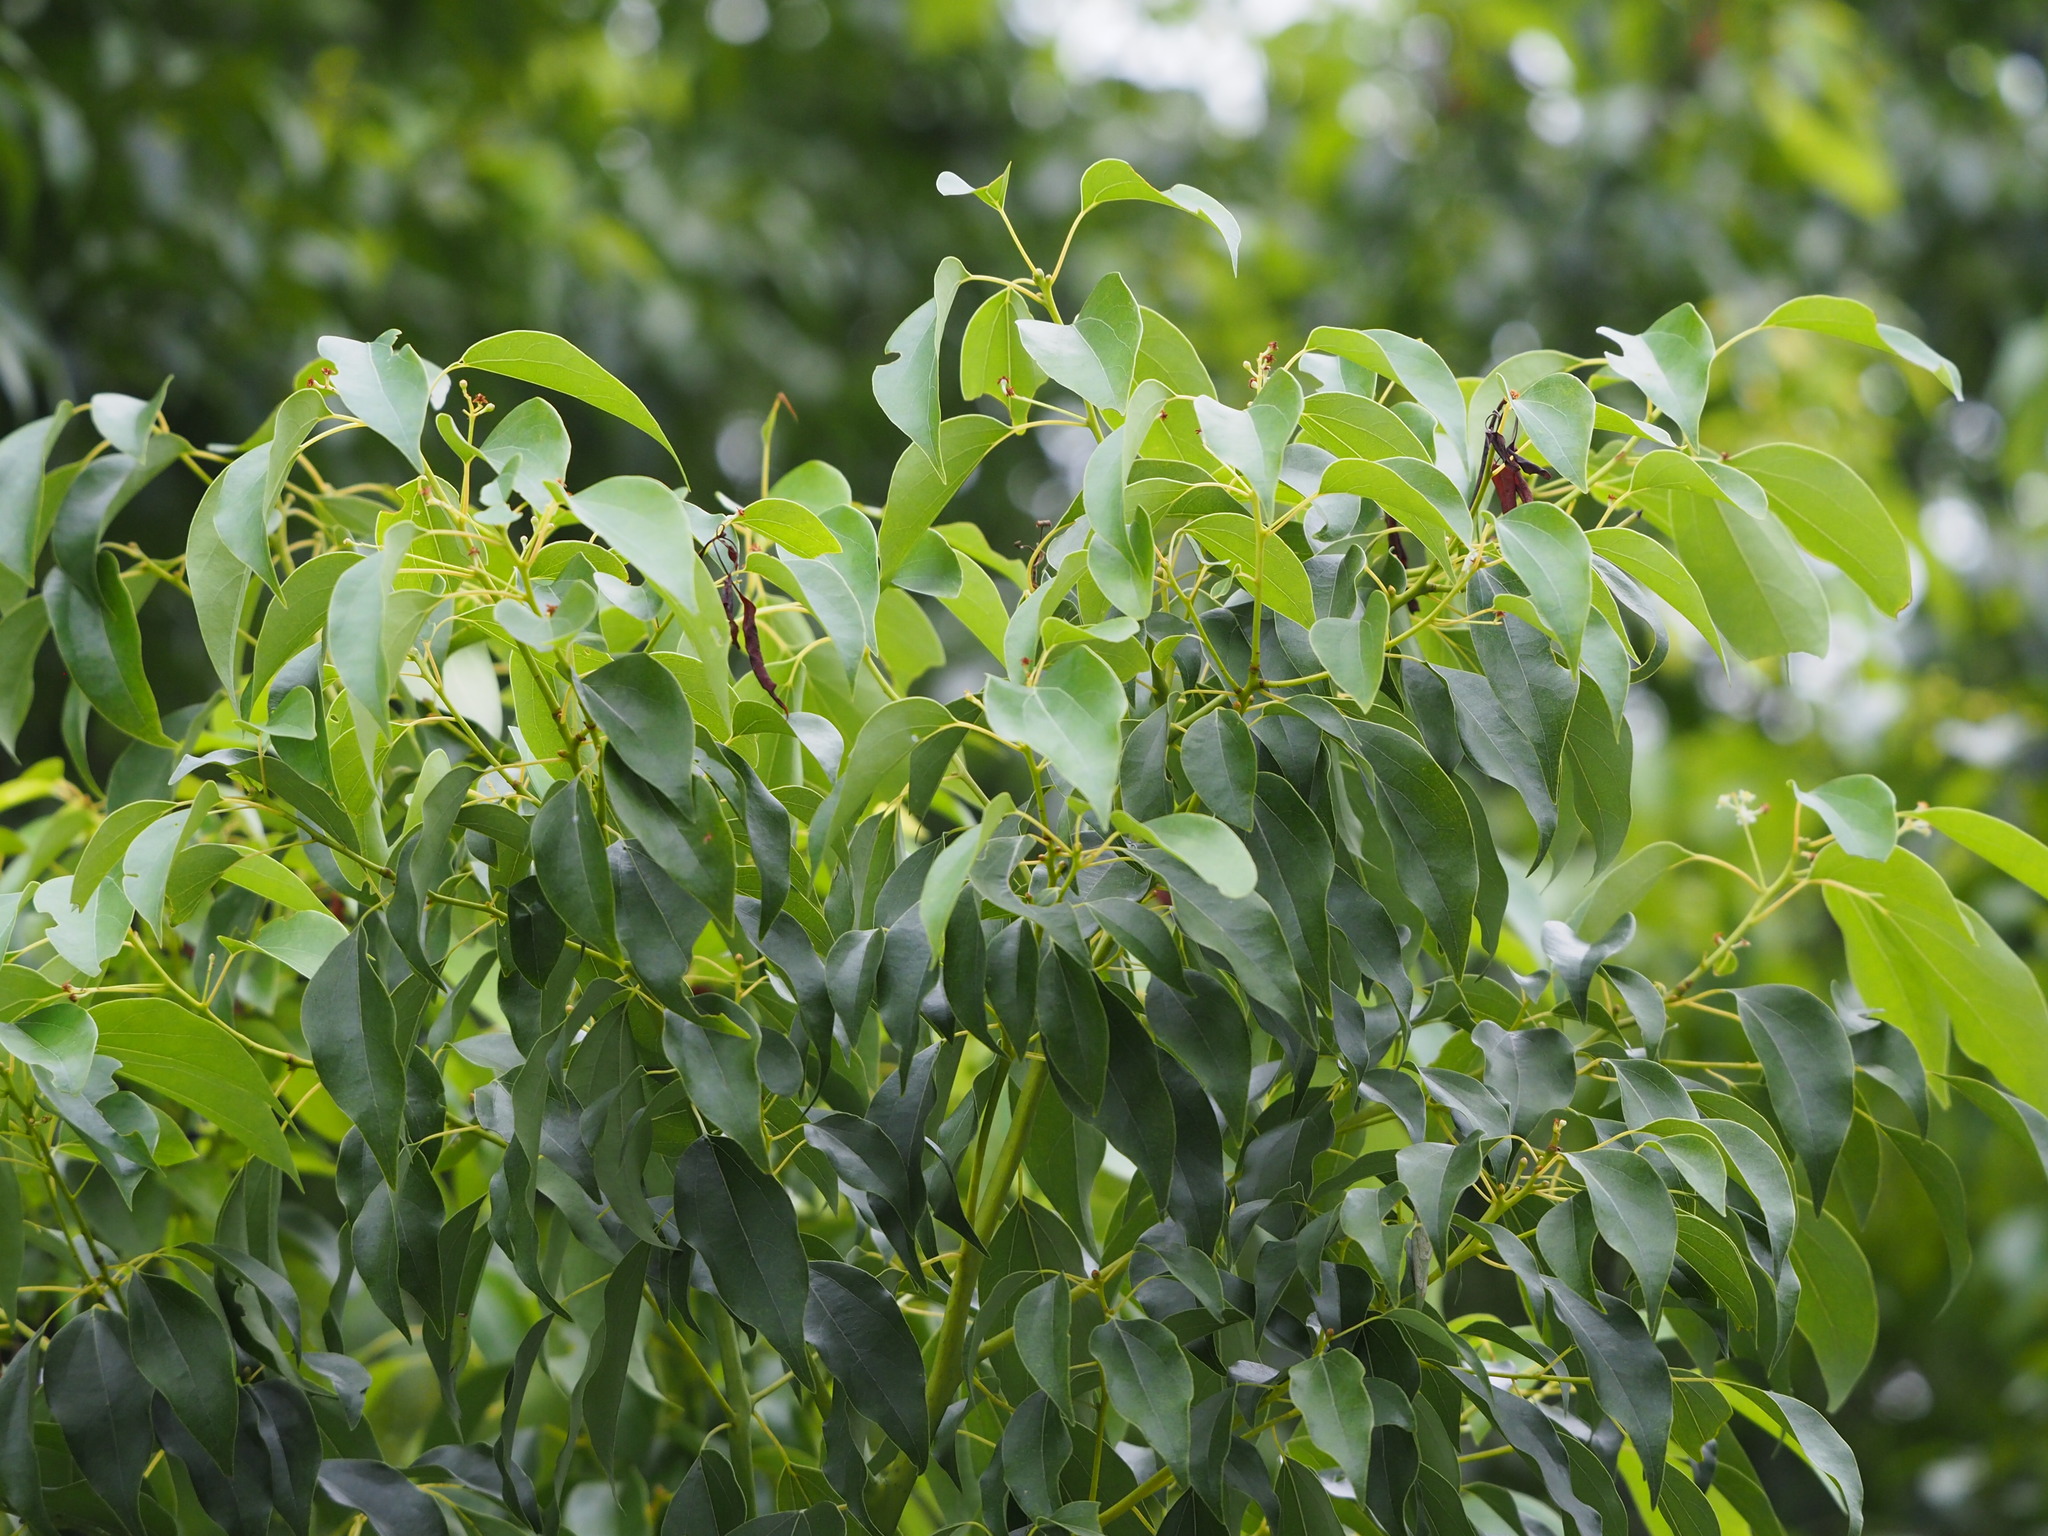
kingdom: Plantae
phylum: Tracheophyta
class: Magnoliopsida
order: Laurales
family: Lauraceae
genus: Cinnamomum
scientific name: Cinnamomum camphora
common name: Camphortree
